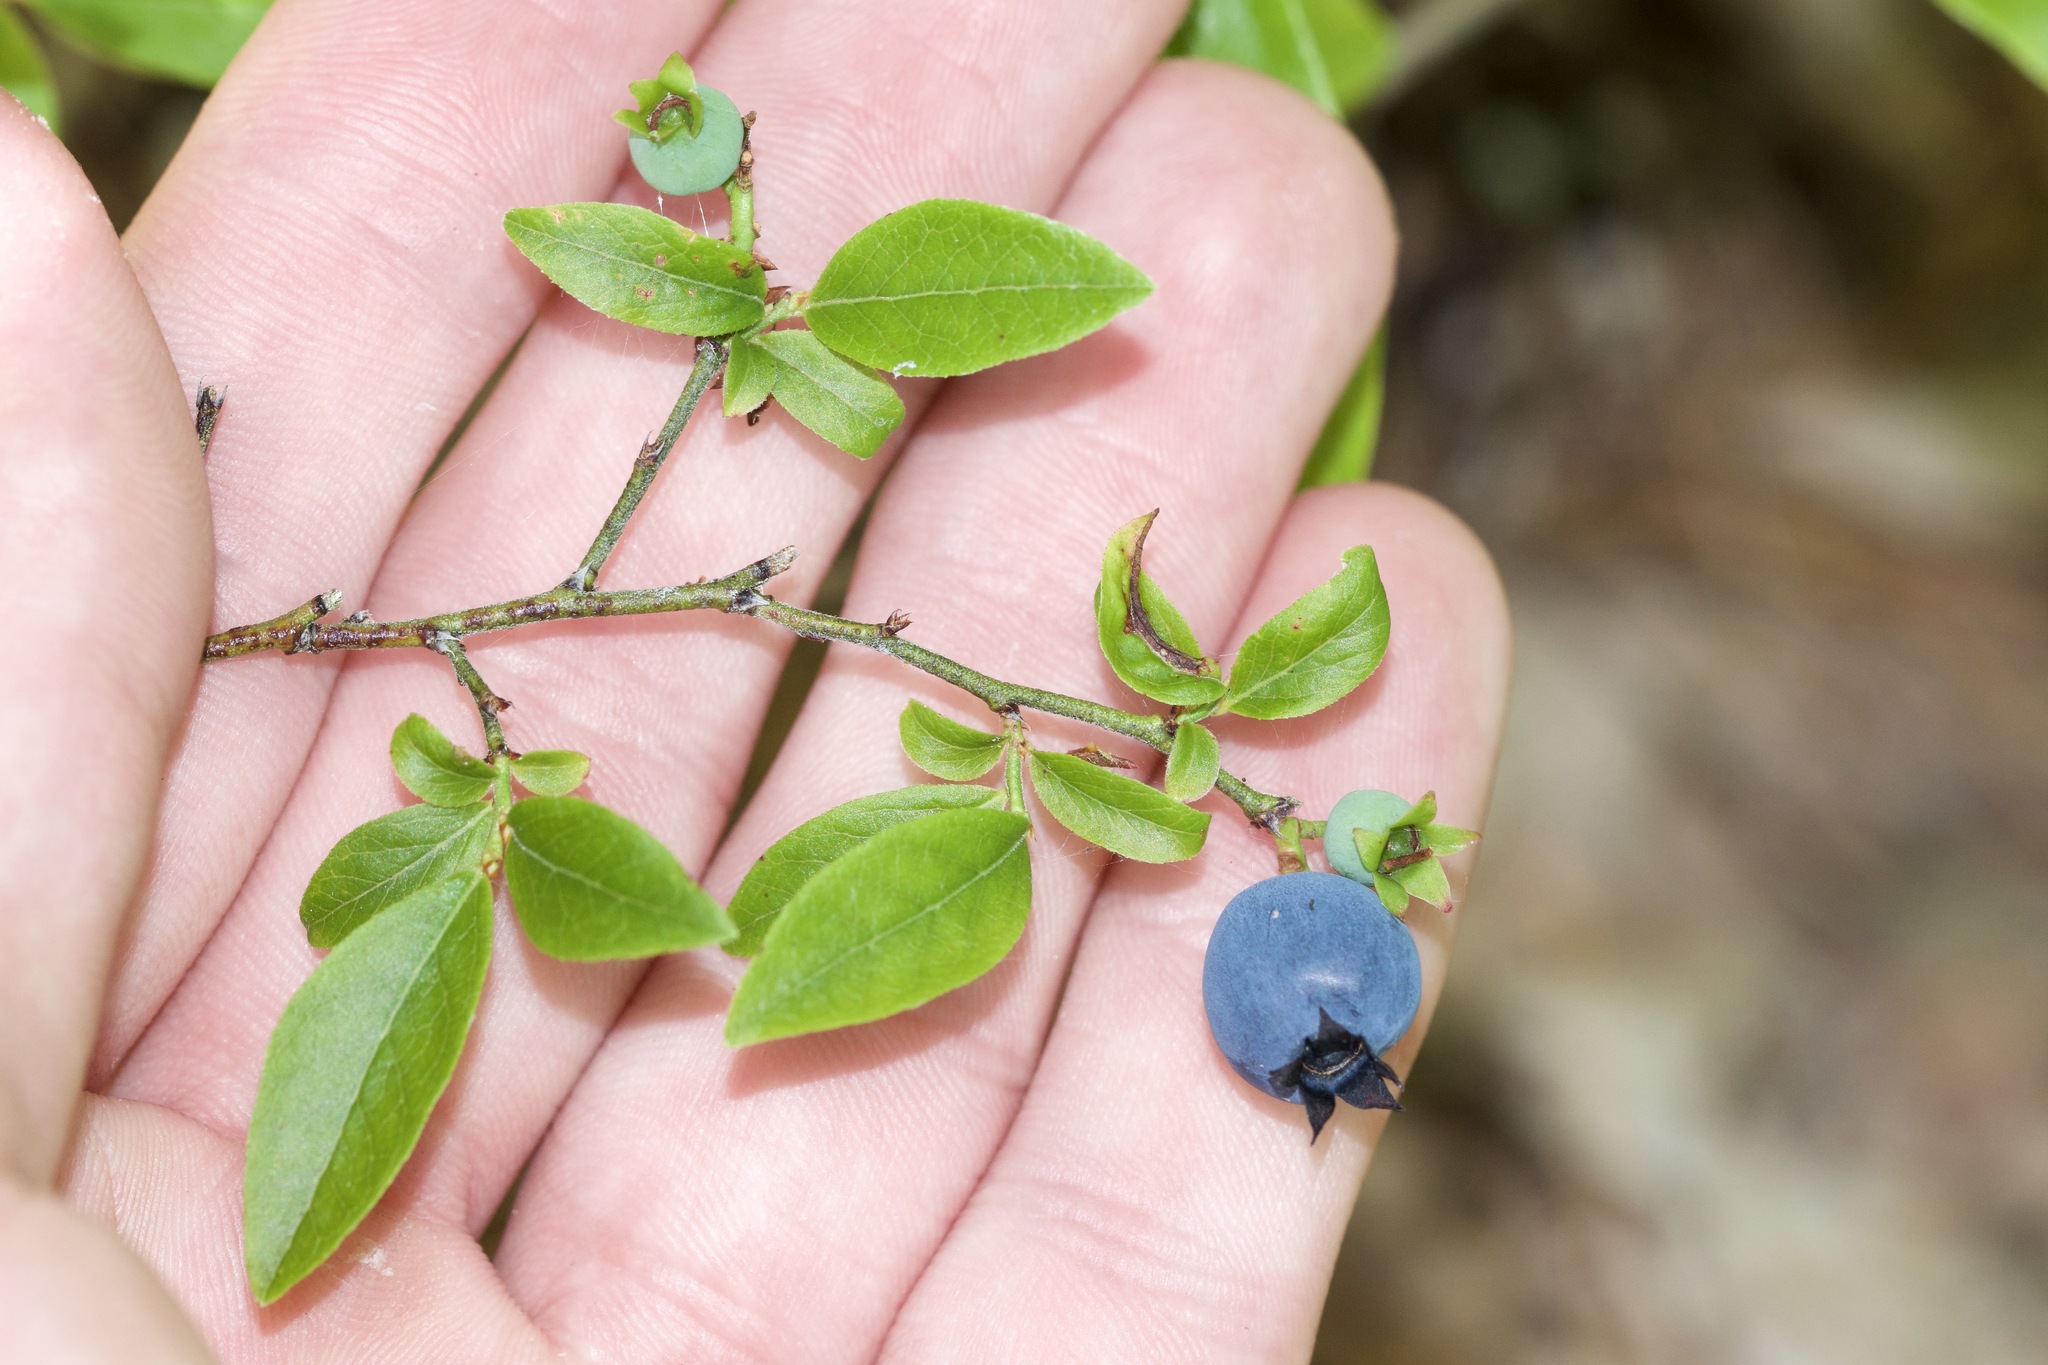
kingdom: Plantae
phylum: Tracheophyta
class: Magnoliopsida
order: Ericales
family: Ericaceae
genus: Vaccinium
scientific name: Vaccinium angustifolium
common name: Early lowbush blueberry
